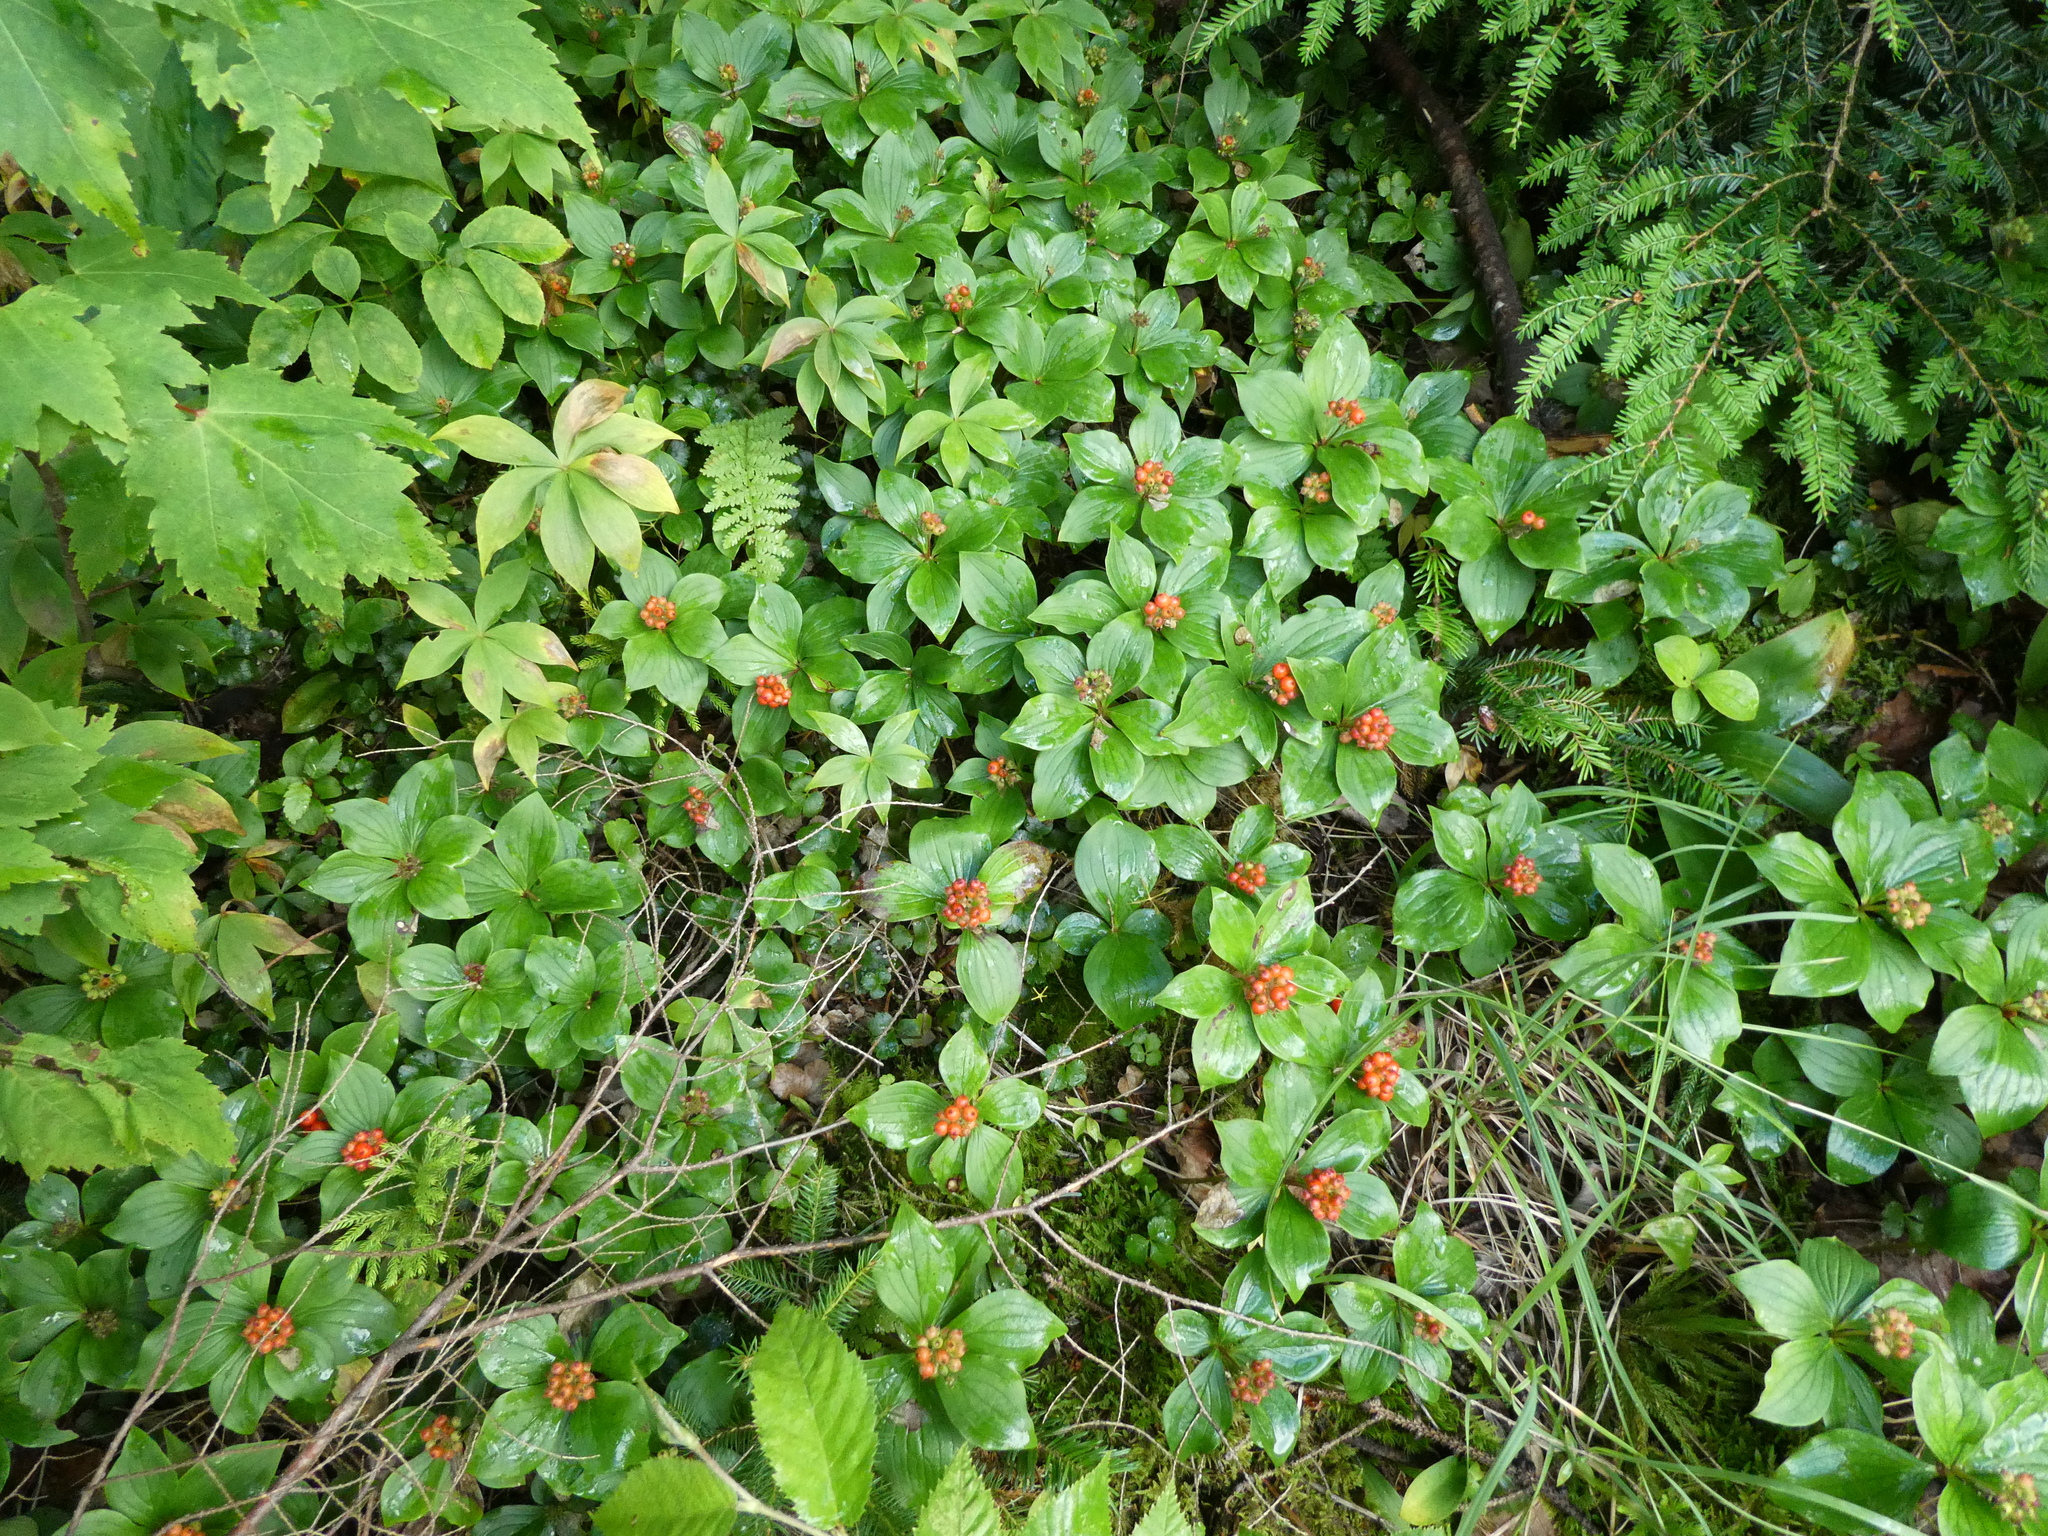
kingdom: Plantae
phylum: Tracheophyta
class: Magnoliopsida
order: Cornales
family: Cornaceae
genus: Cornus
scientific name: Cornus canadensis
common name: Creeping dogwood
